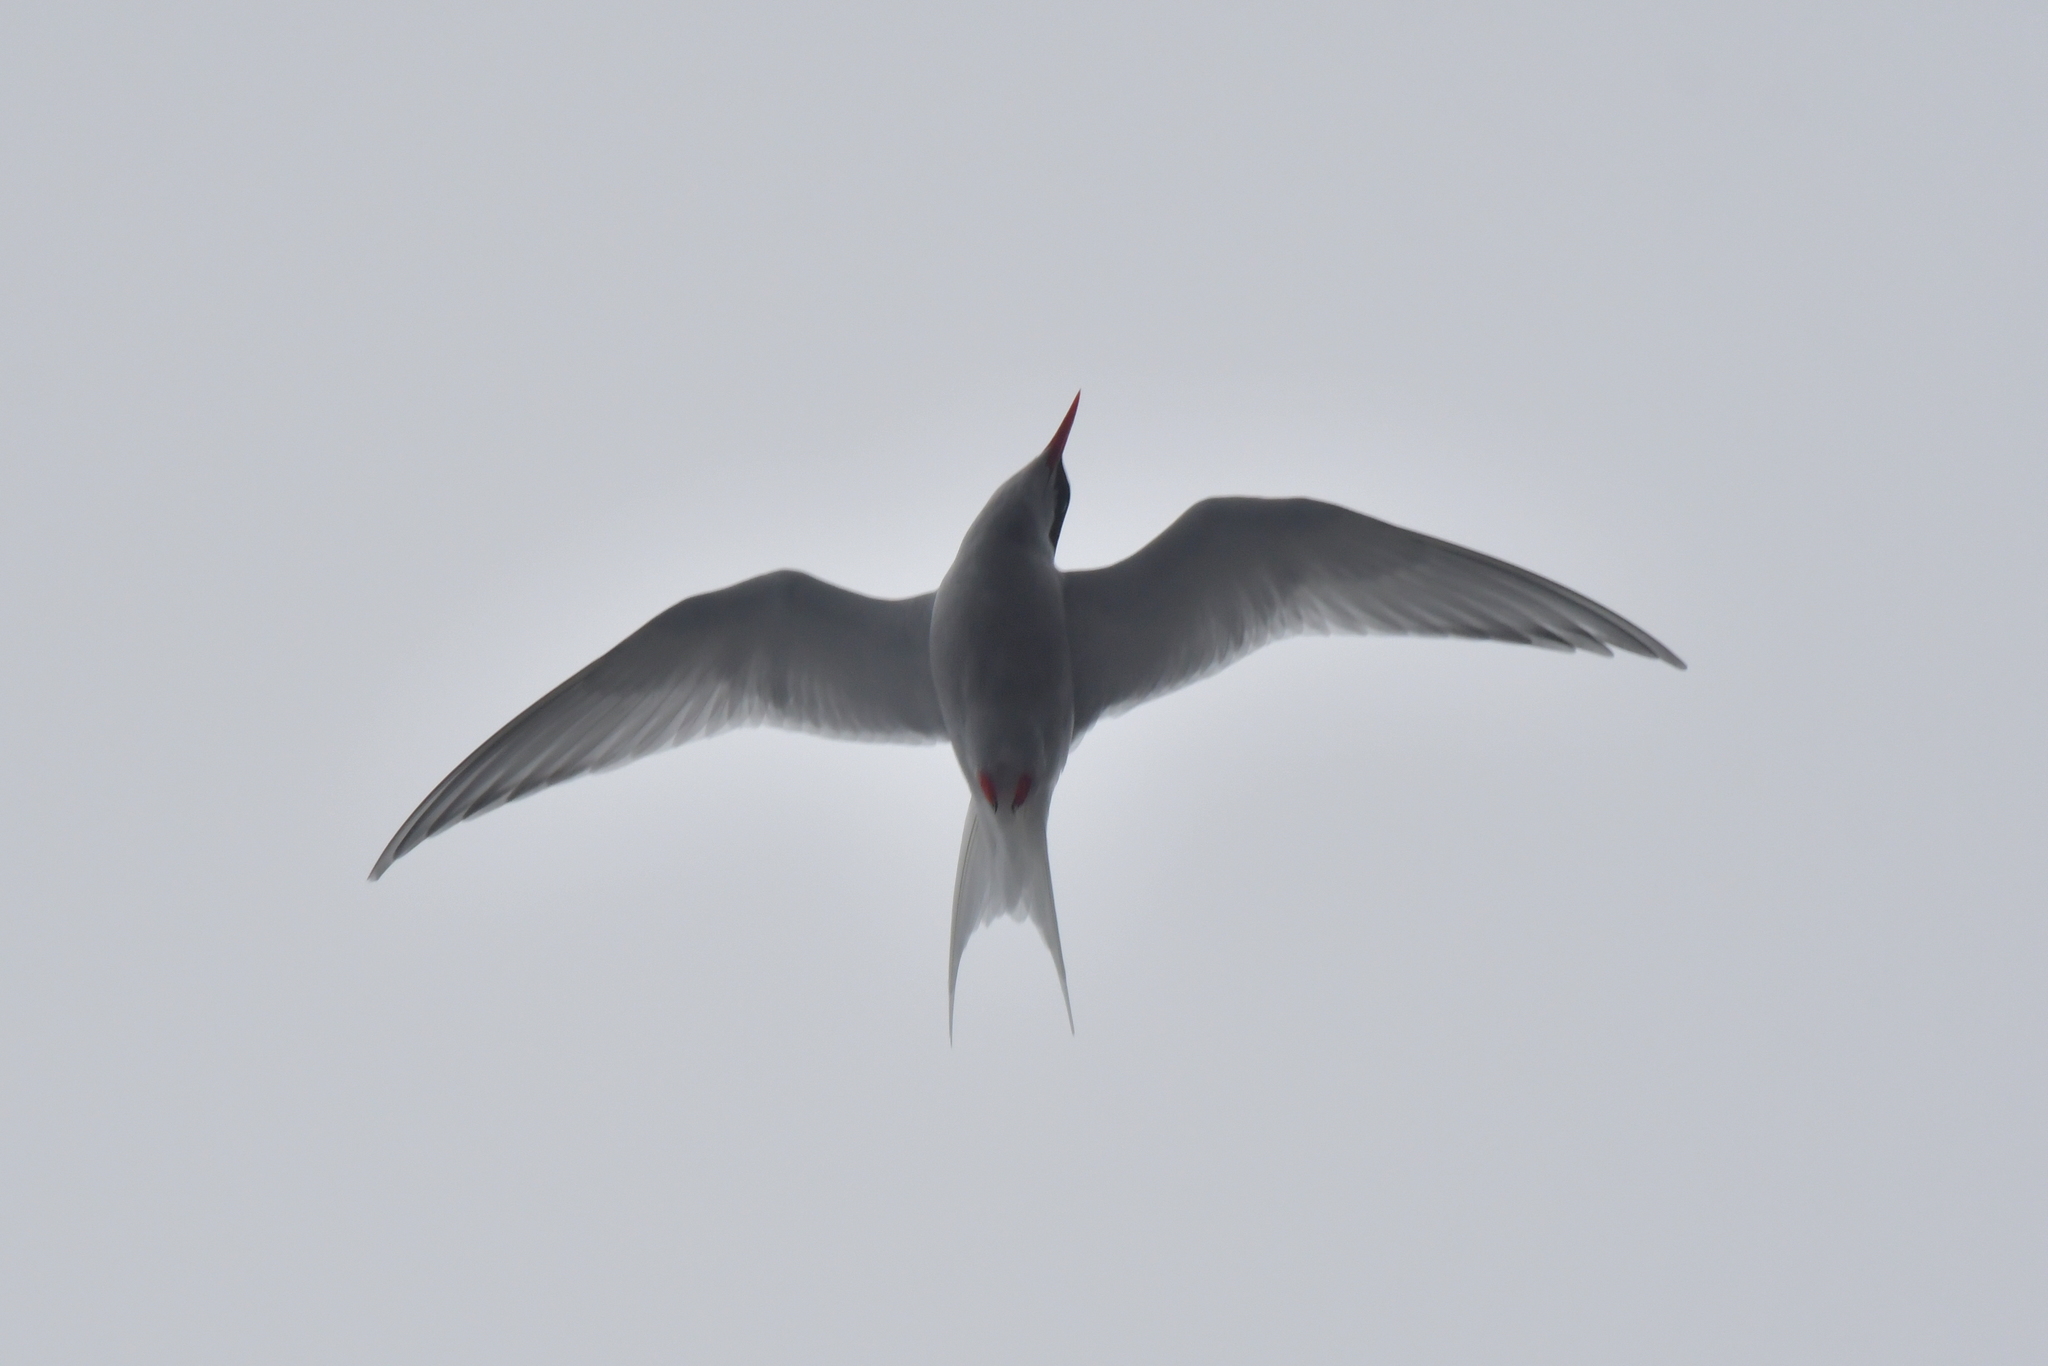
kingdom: Animalia
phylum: Chordata
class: Aves
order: Charadriiformes
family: Laridae
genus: Sterna
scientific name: Sterna vittata
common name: Antarctic tern
